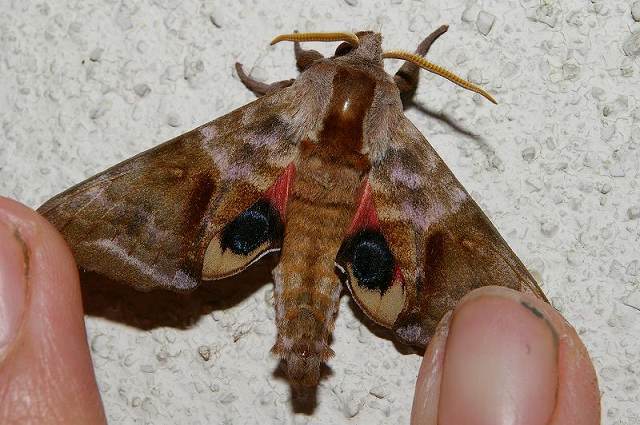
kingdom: Animalia
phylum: Arthropoda
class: Insecta
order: Lepidoptera
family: Sphingidae
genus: Smerinthus
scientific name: Smerinthus tokyonis
